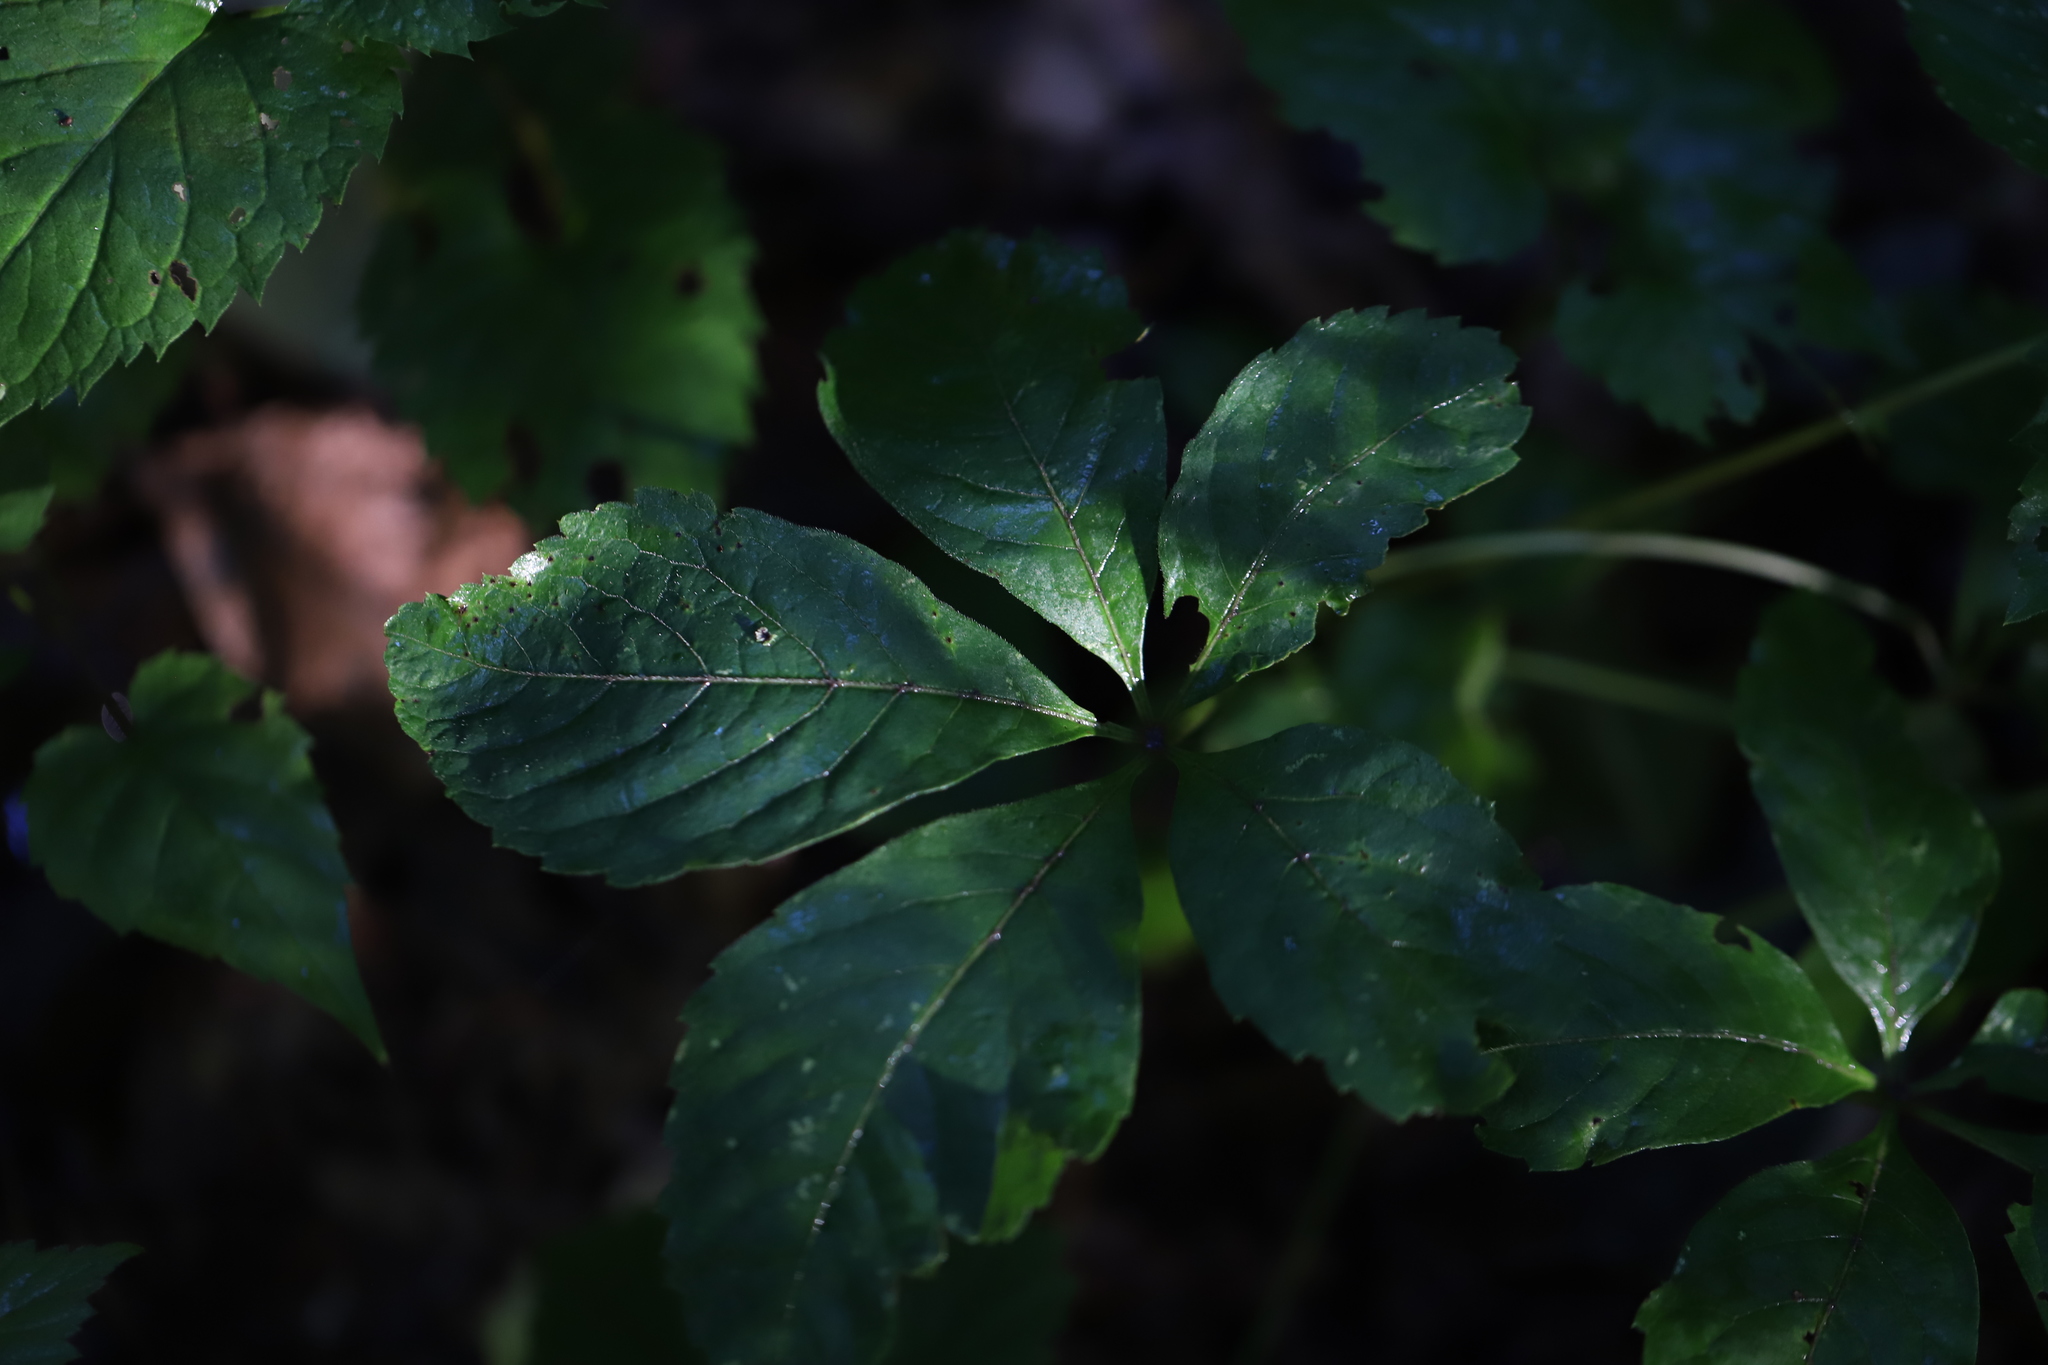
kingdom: Plantae
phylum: Tracheophyta
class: Magnoliopsida
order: Vitales
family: Vitaceae
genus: Parthenocissus
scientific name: Parthenocissus quinquefolia
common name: Virginia-creeper
